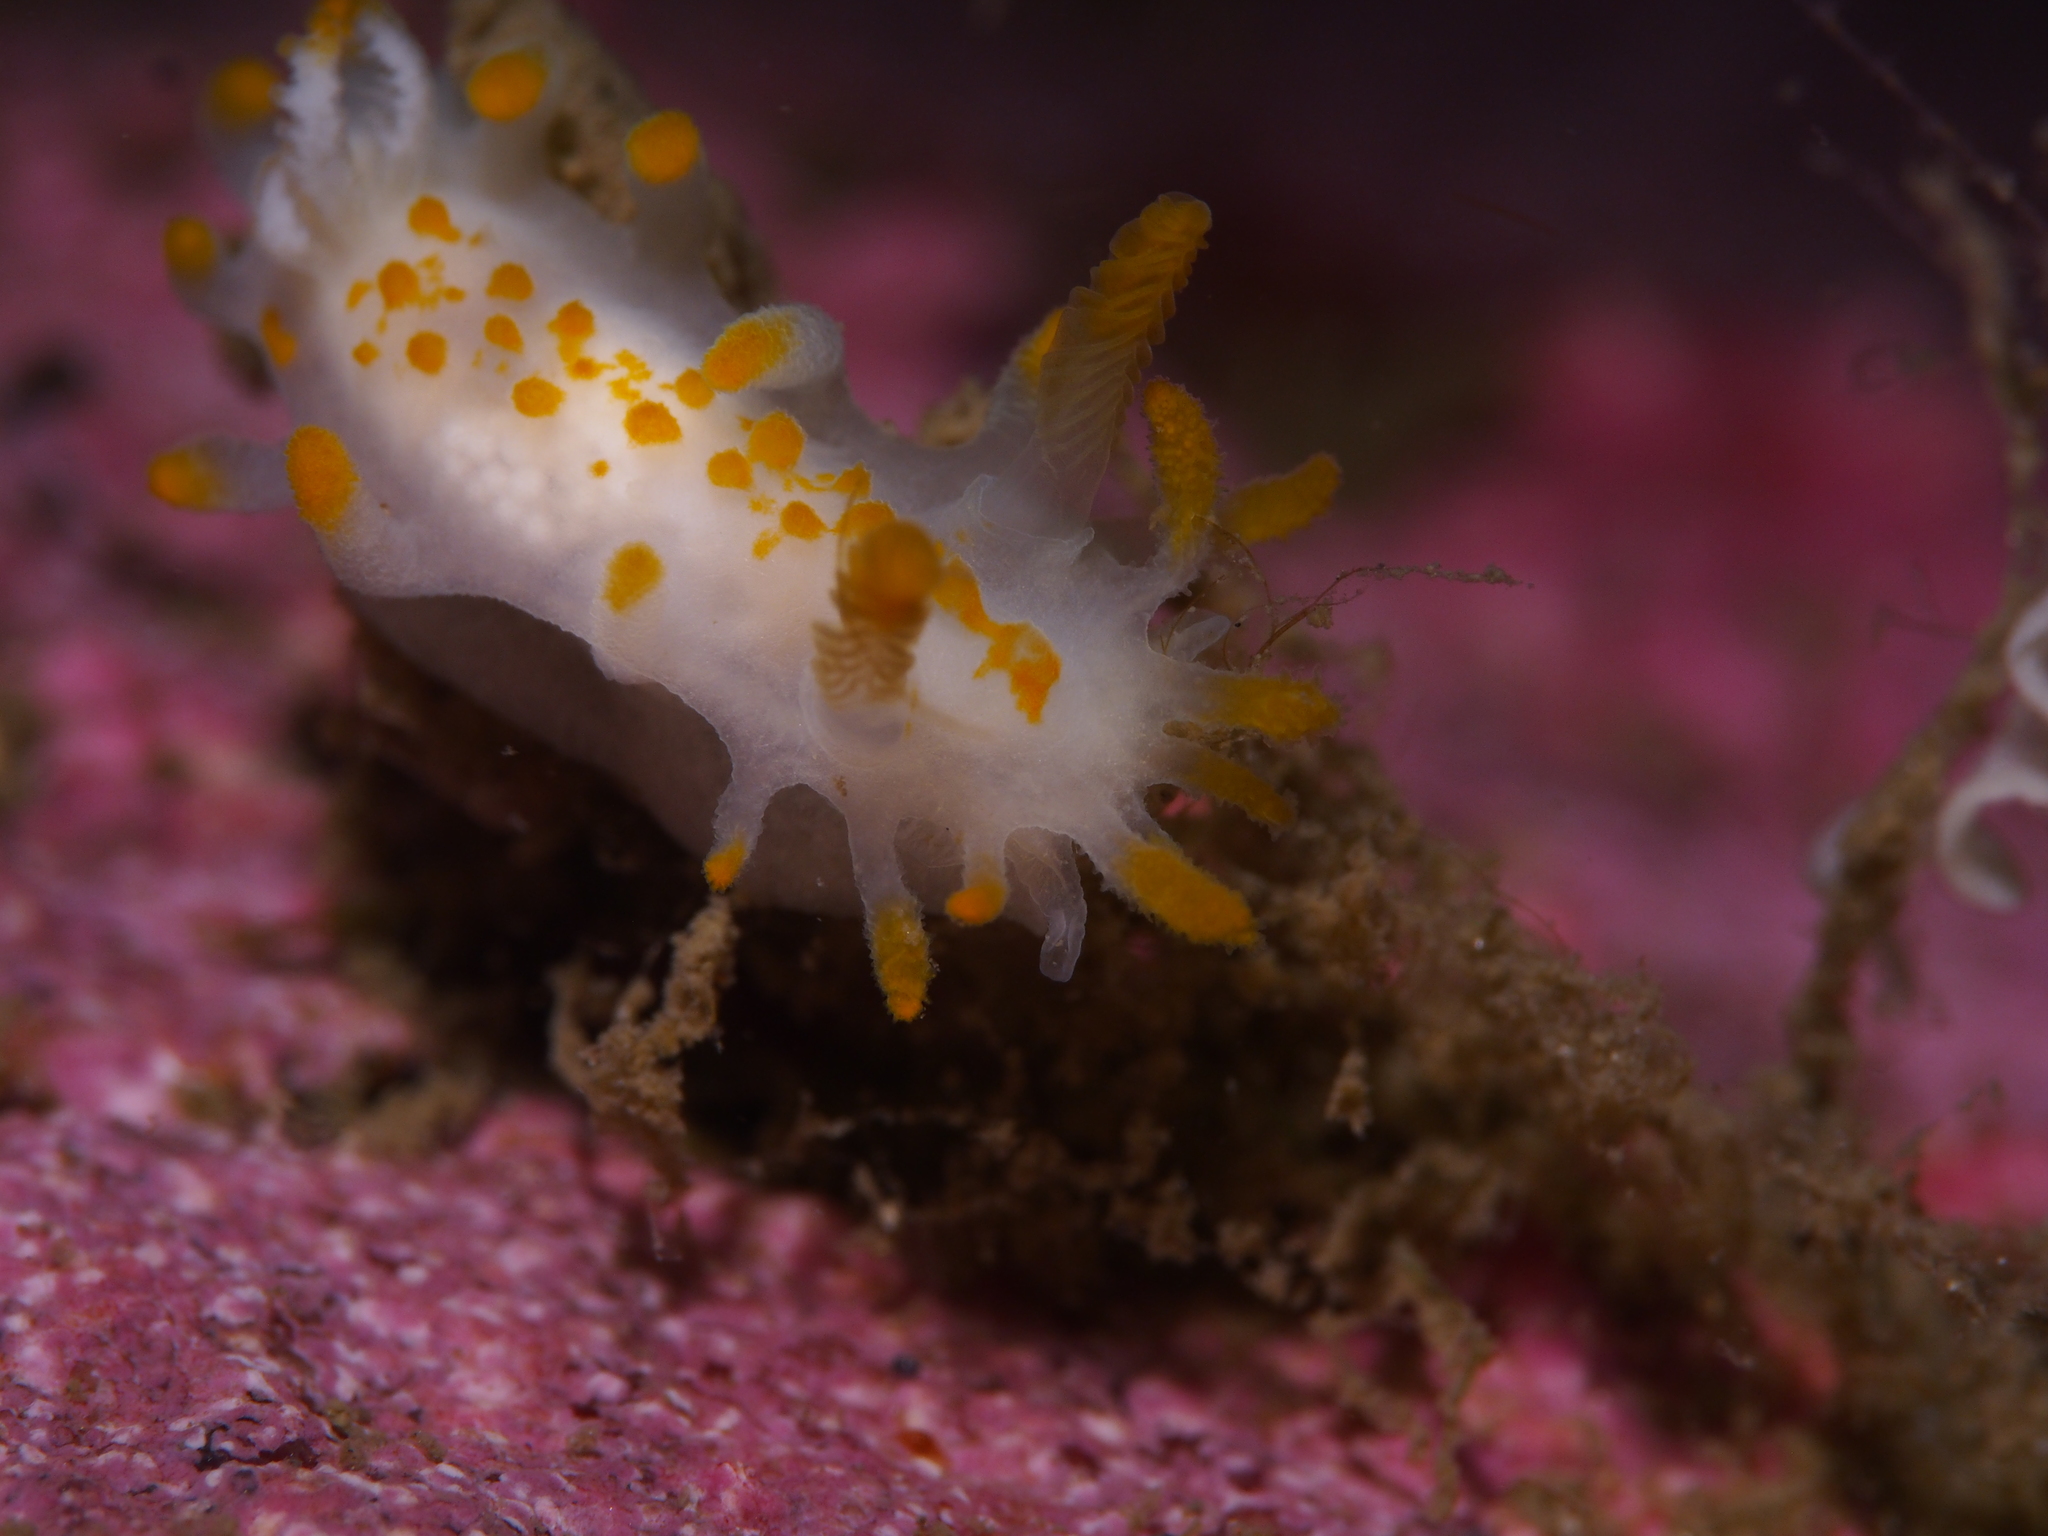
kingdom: Animalia
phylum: Mollusca
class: Gastropoda
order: Nudibranchia
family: Polyceridae
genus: Limacia
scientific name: Limacia clavigera
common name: Orange-clubbed sea slug
